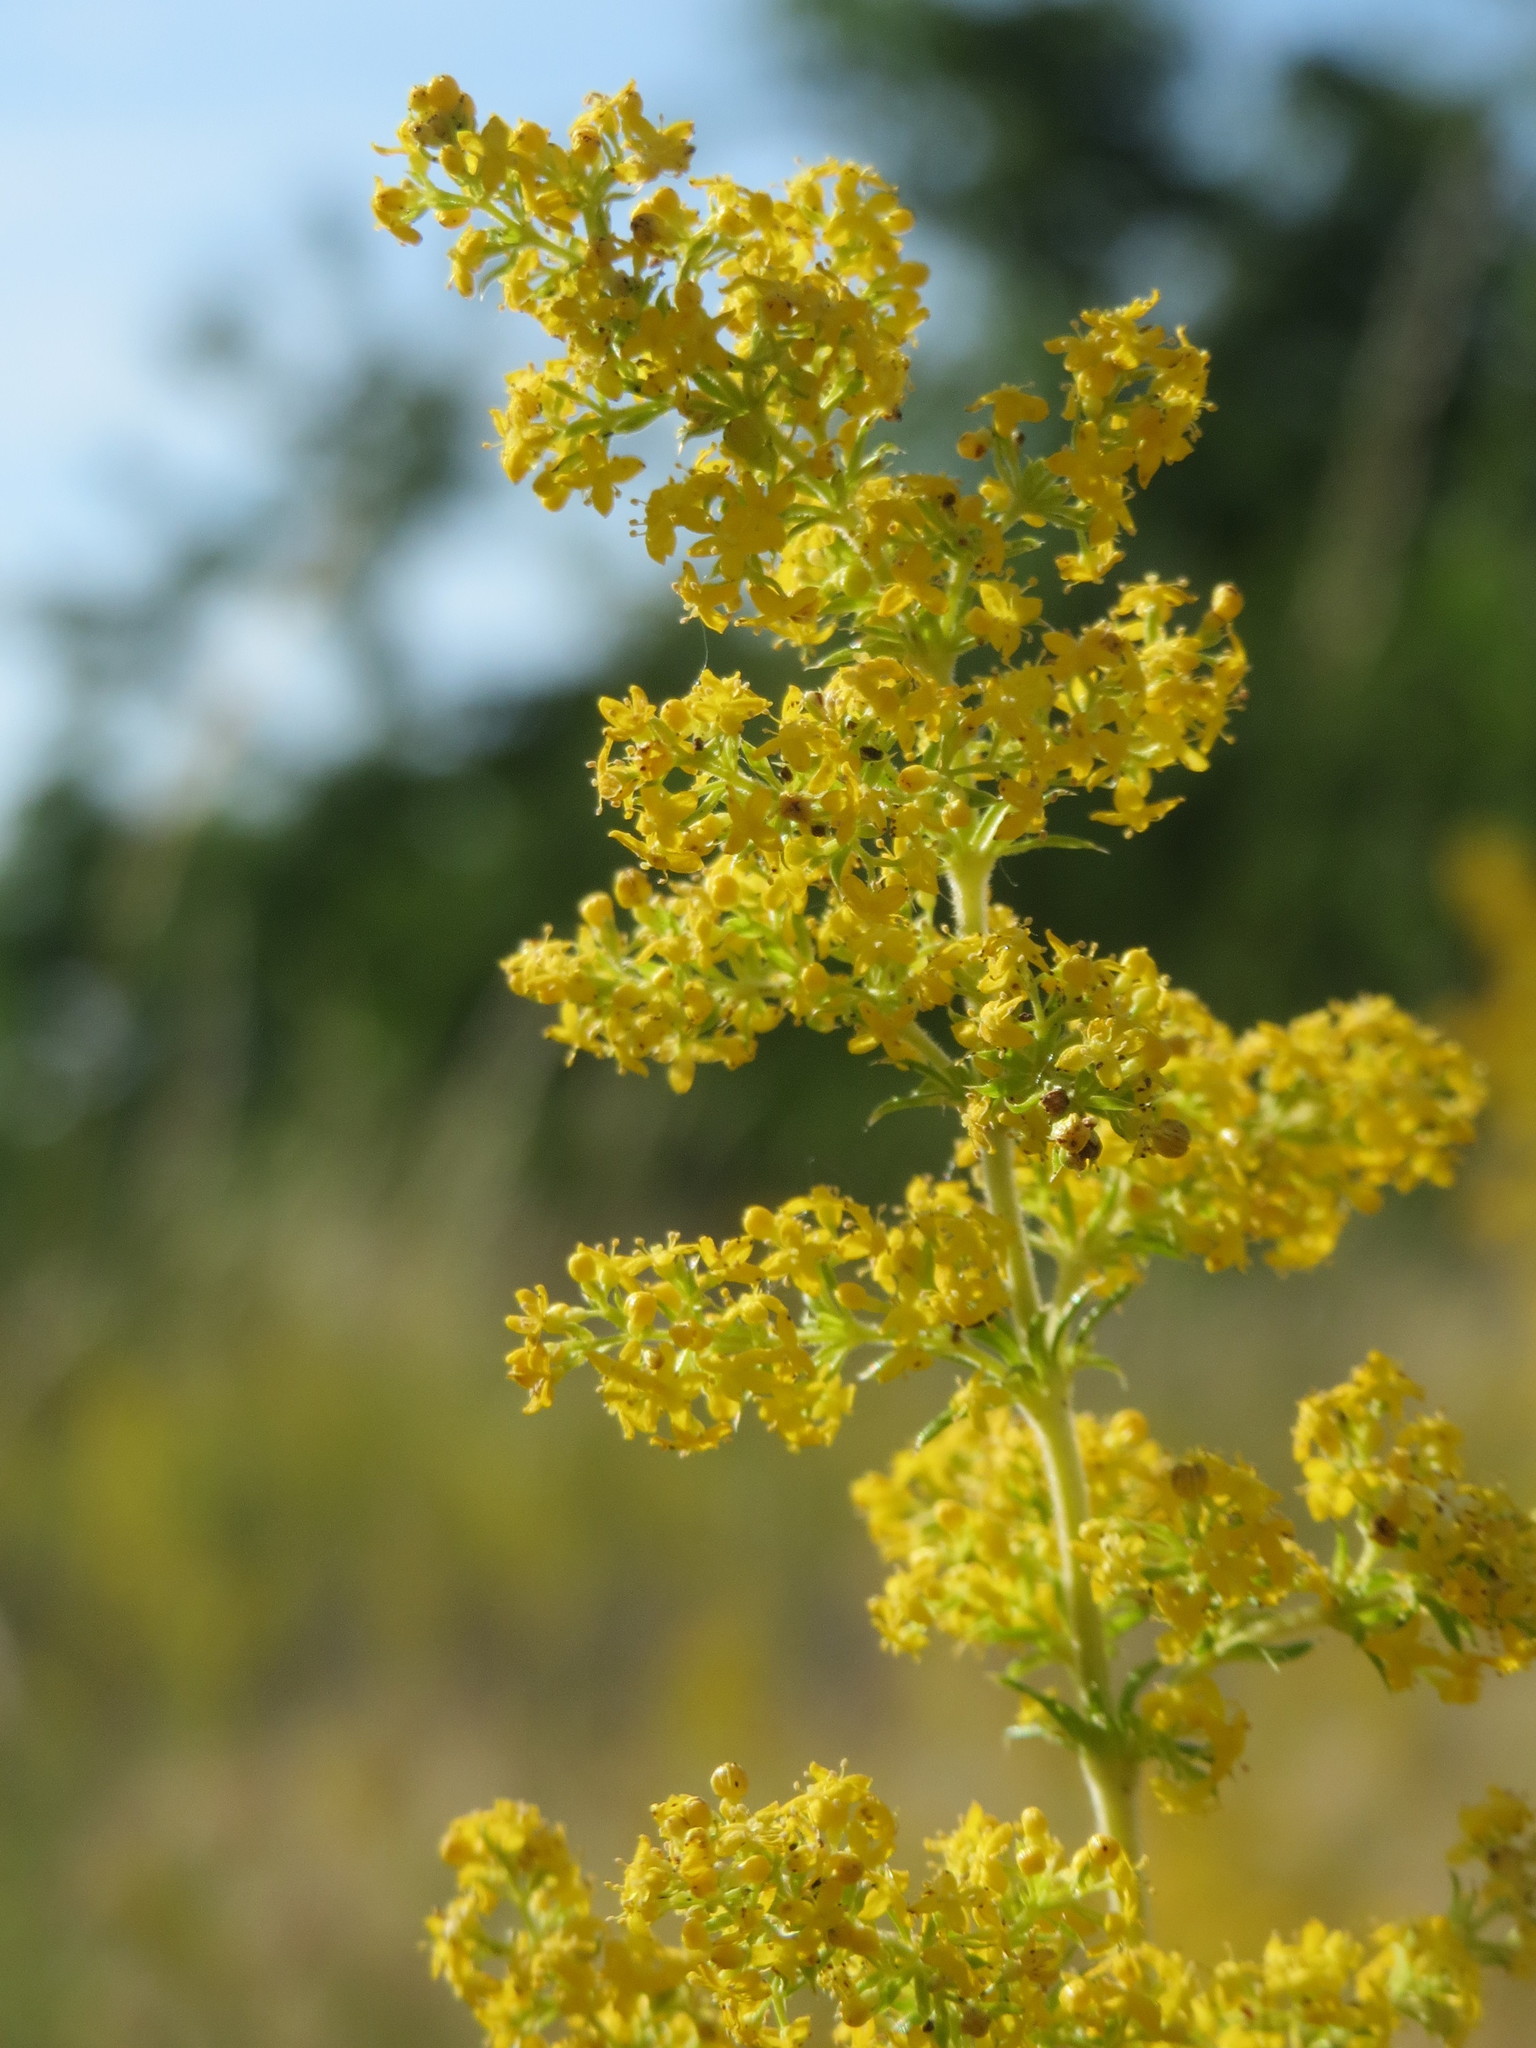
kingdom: Plantae
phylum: Tracheophyta
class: Magnoliopsida
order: Gentianales
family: Rubiaceae
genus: Galium
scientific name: Galium verum
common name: Lady's bedstraw
